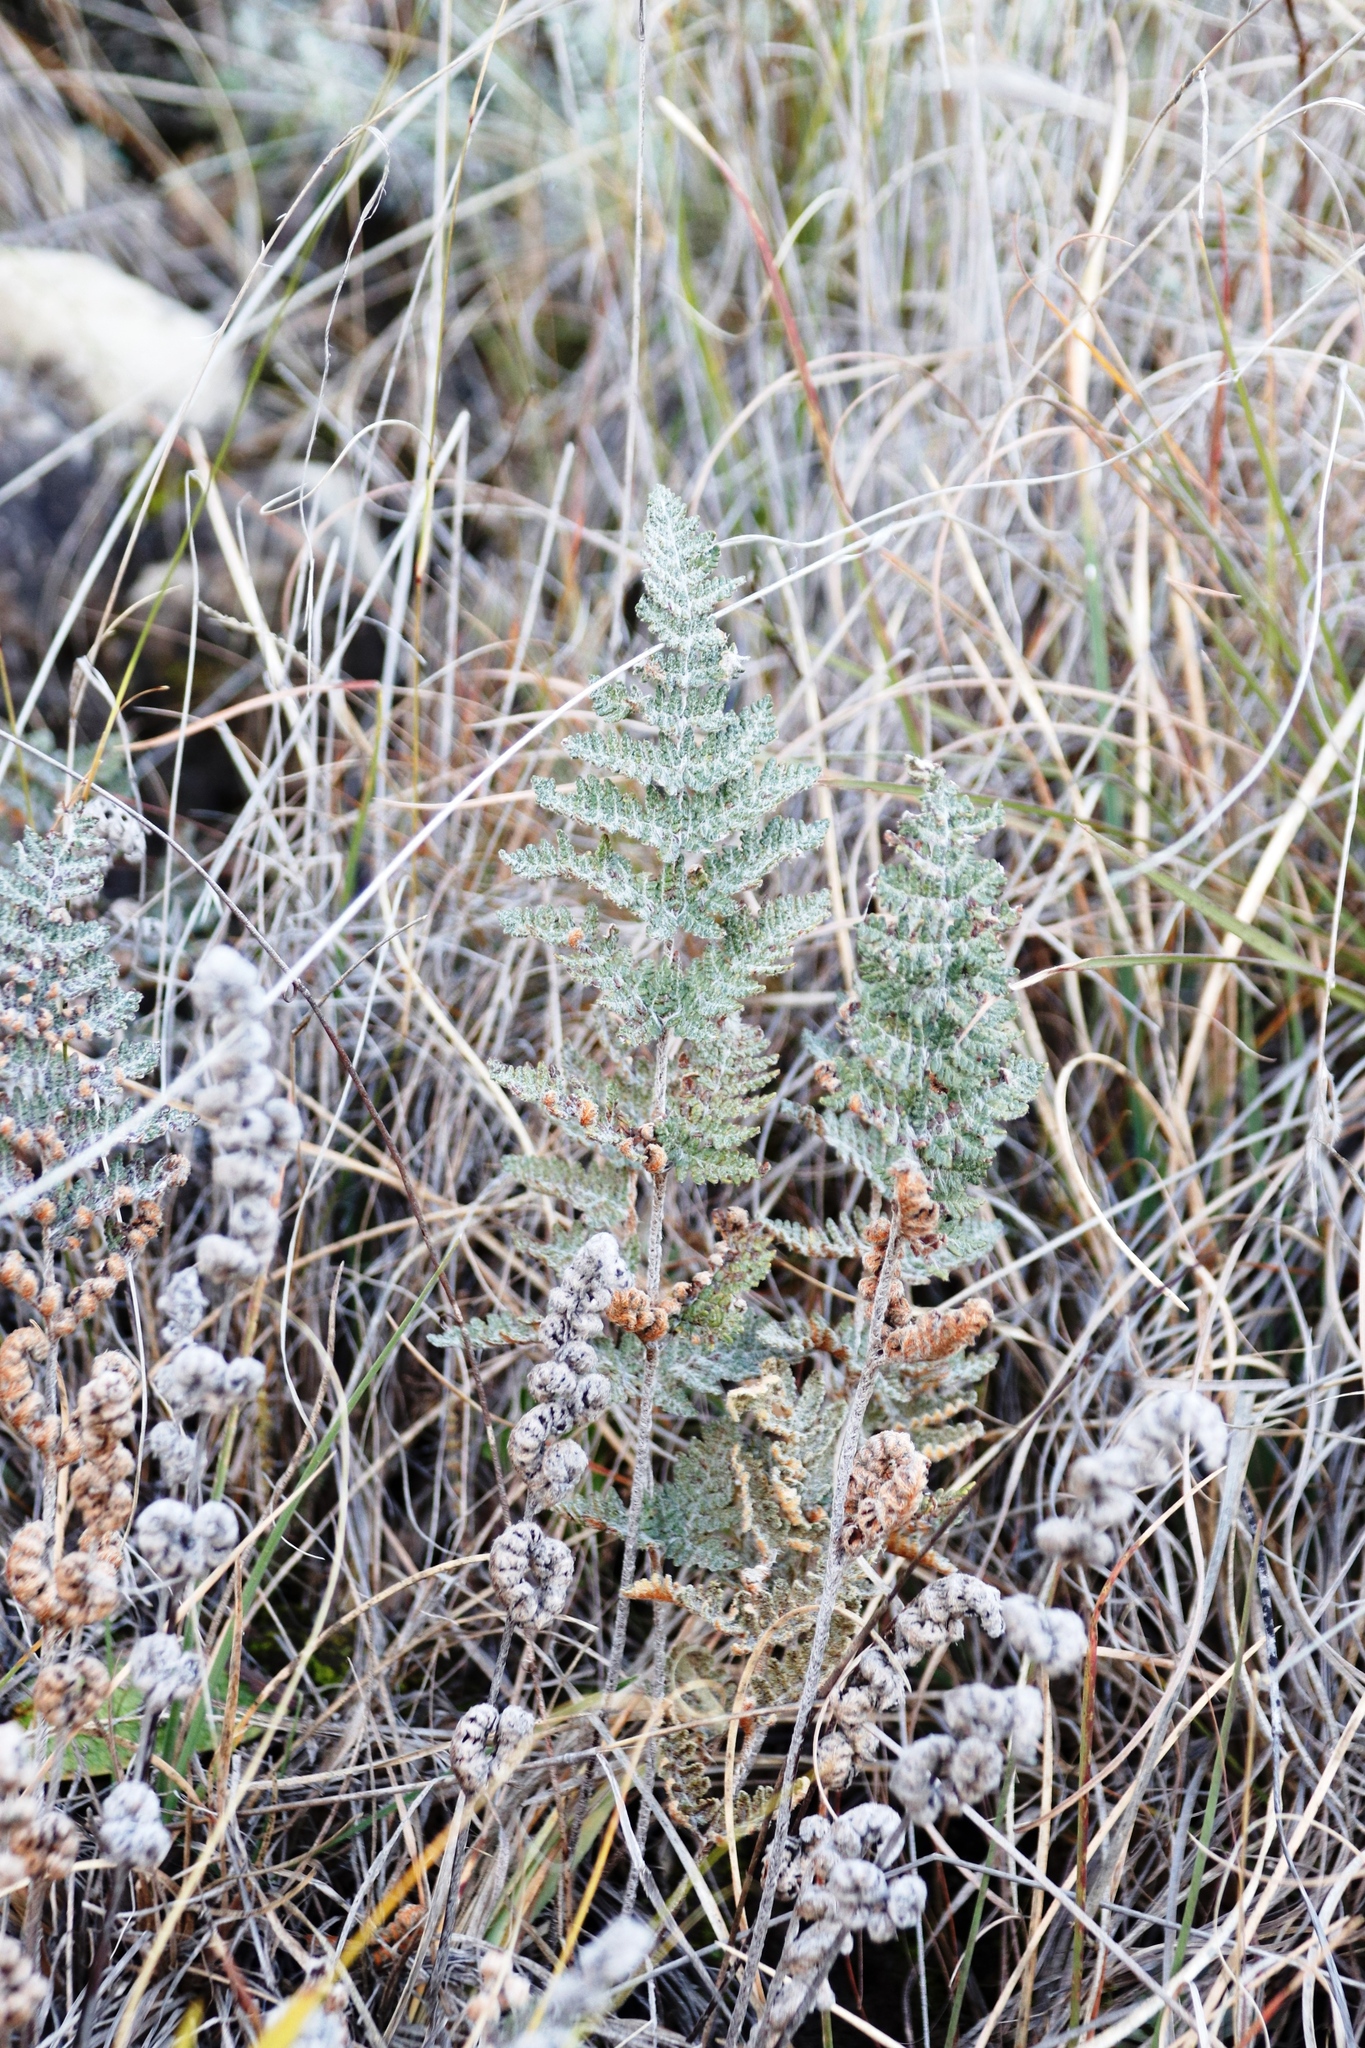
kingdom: Plantae
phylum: Tracheophyta
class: Polypodiopsida
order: Polypodiales
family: Pteridaceae
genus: Cheilanthes
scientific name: Cheilanthes eckloniana
